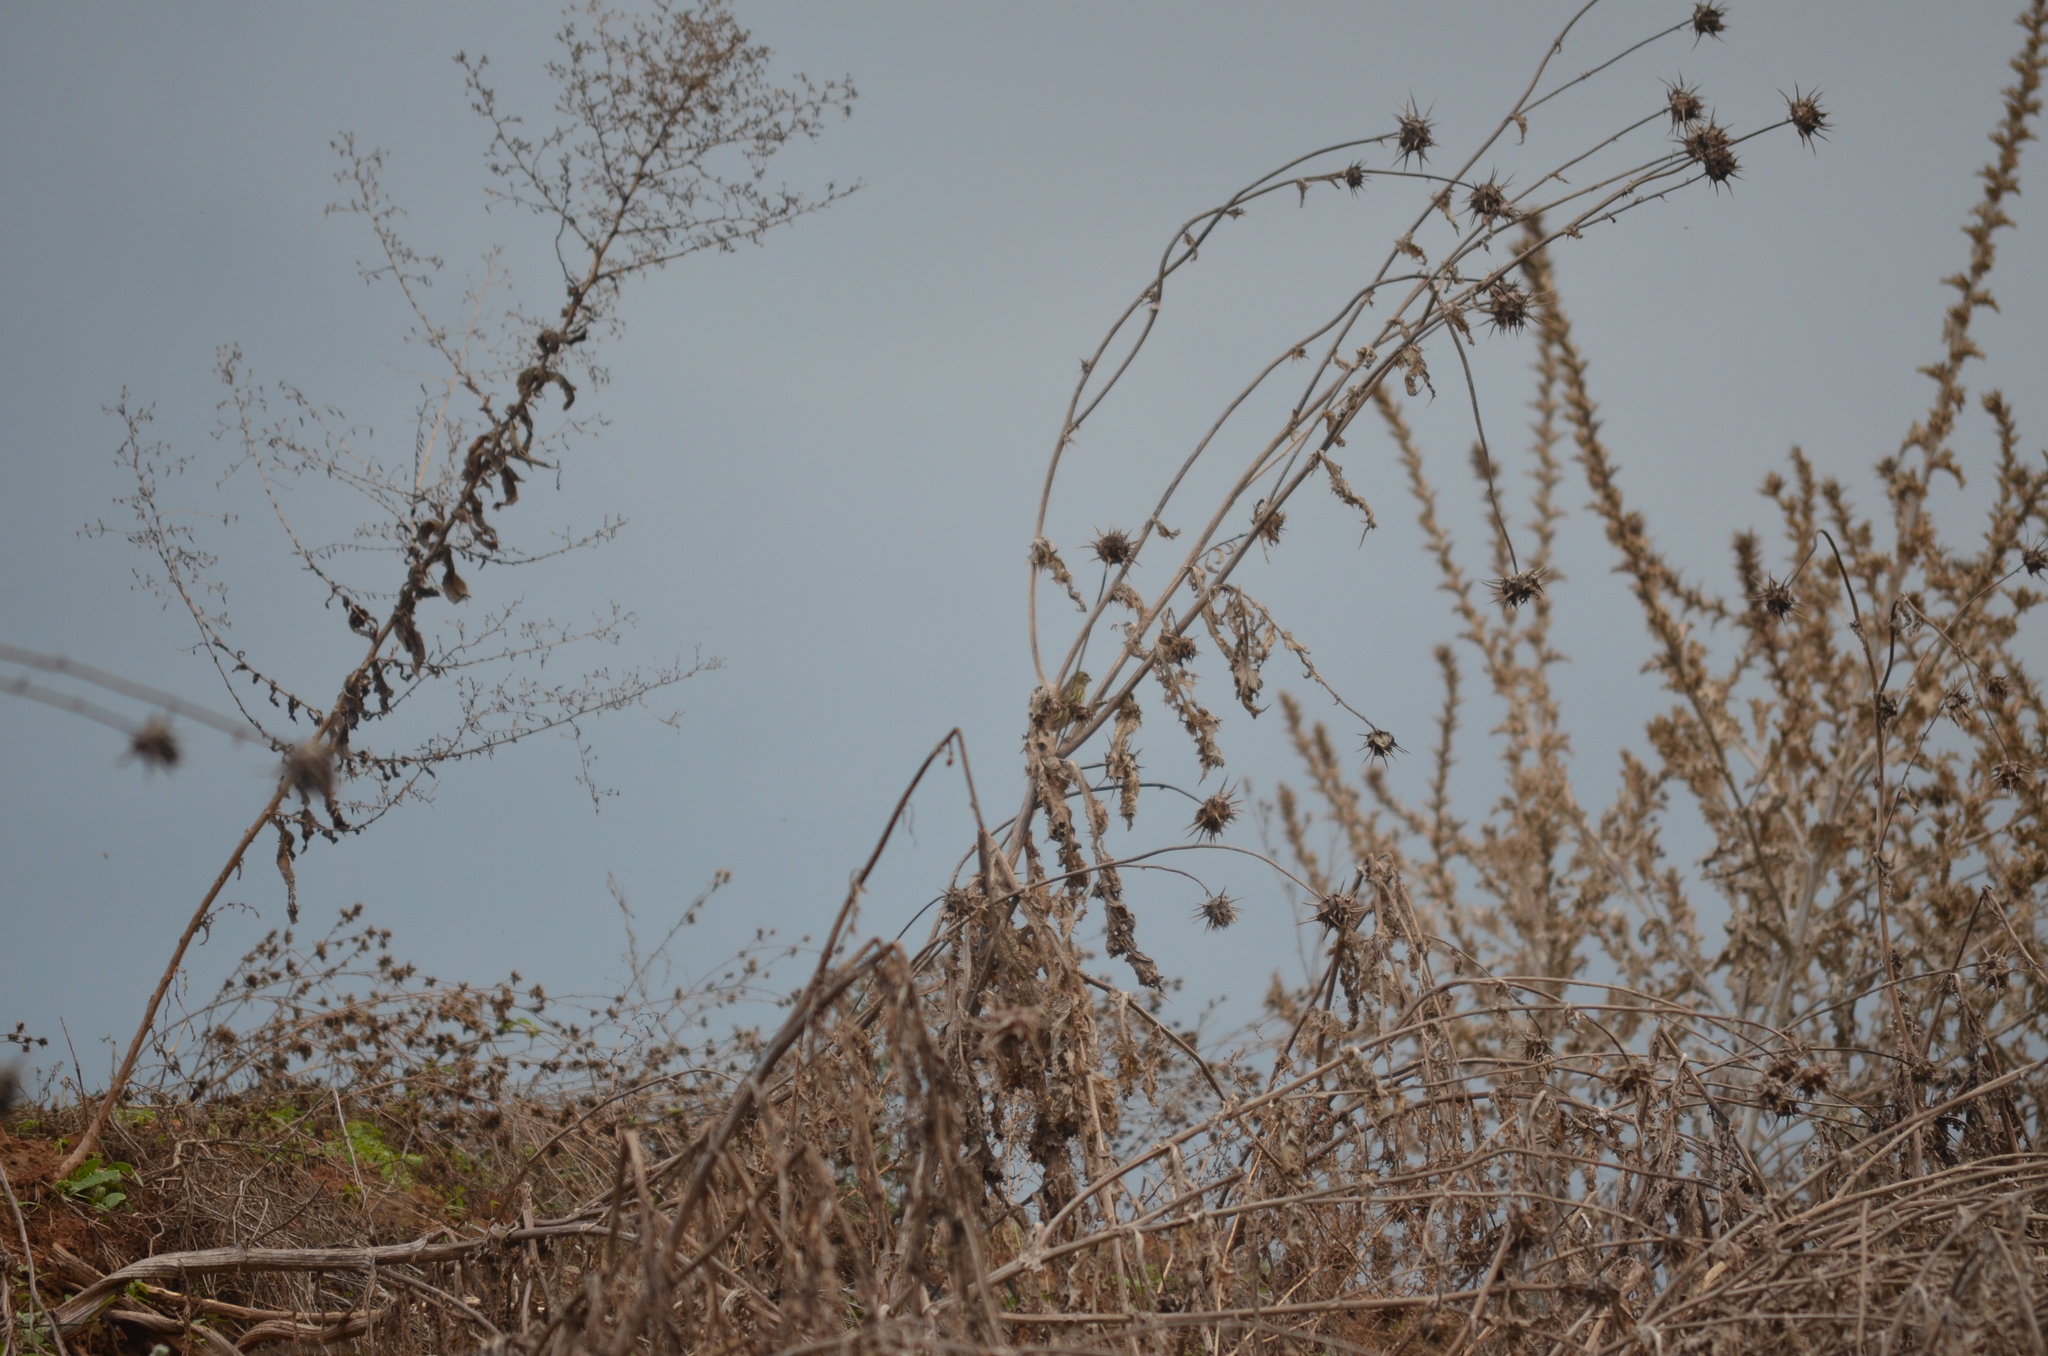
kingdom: Animalia
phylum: Chordata
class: Aves
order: Passeriformes
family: Fringillidae
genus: Serinus
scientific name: Serinus serinus
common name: European serin
